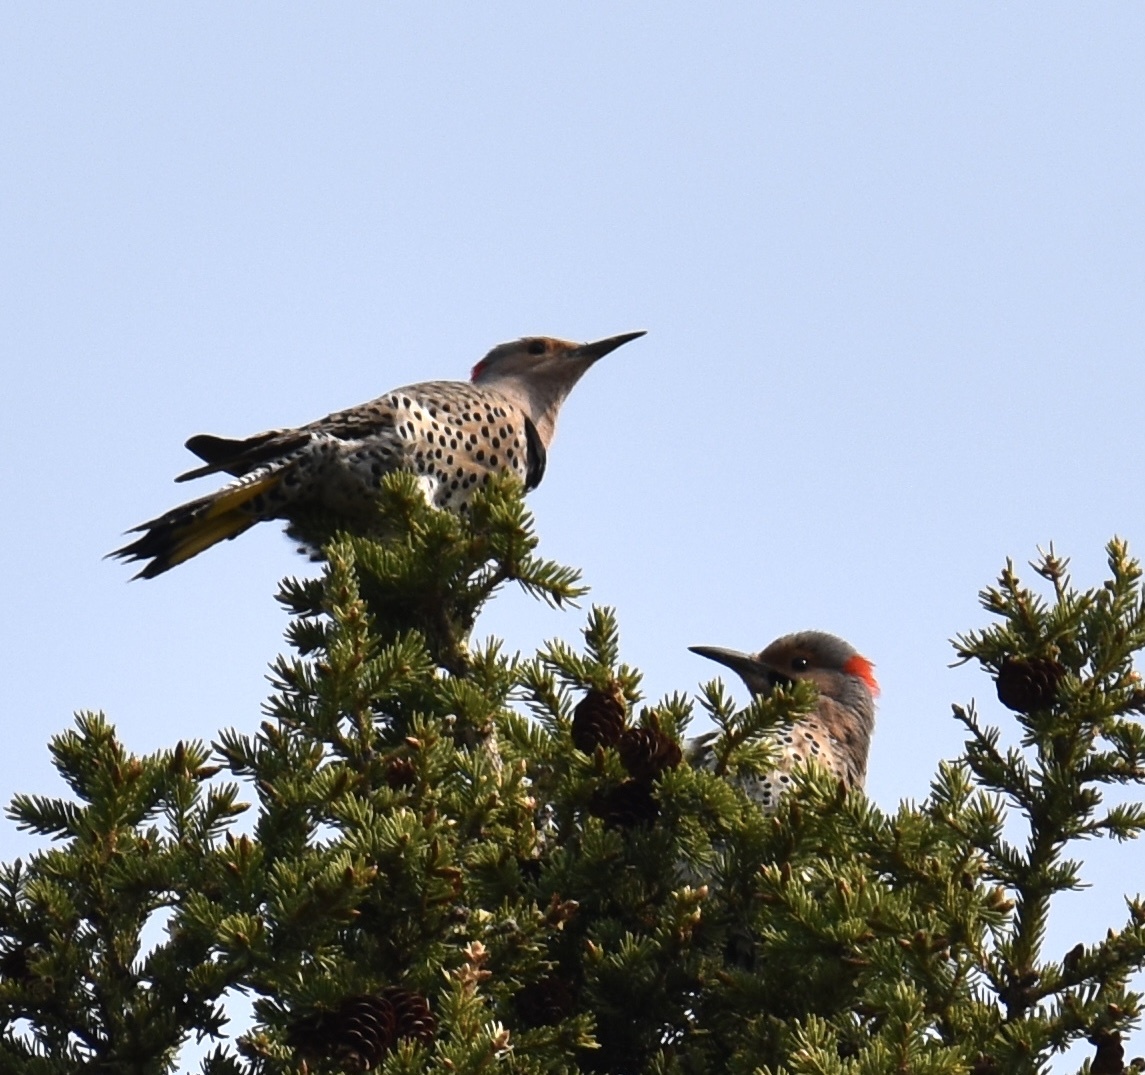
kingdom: Animalia
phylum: Chordata
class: Aves
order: Piciformes
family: Picidae
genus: Colaptes
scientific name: Colaptes auratus
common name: Northern flicker
